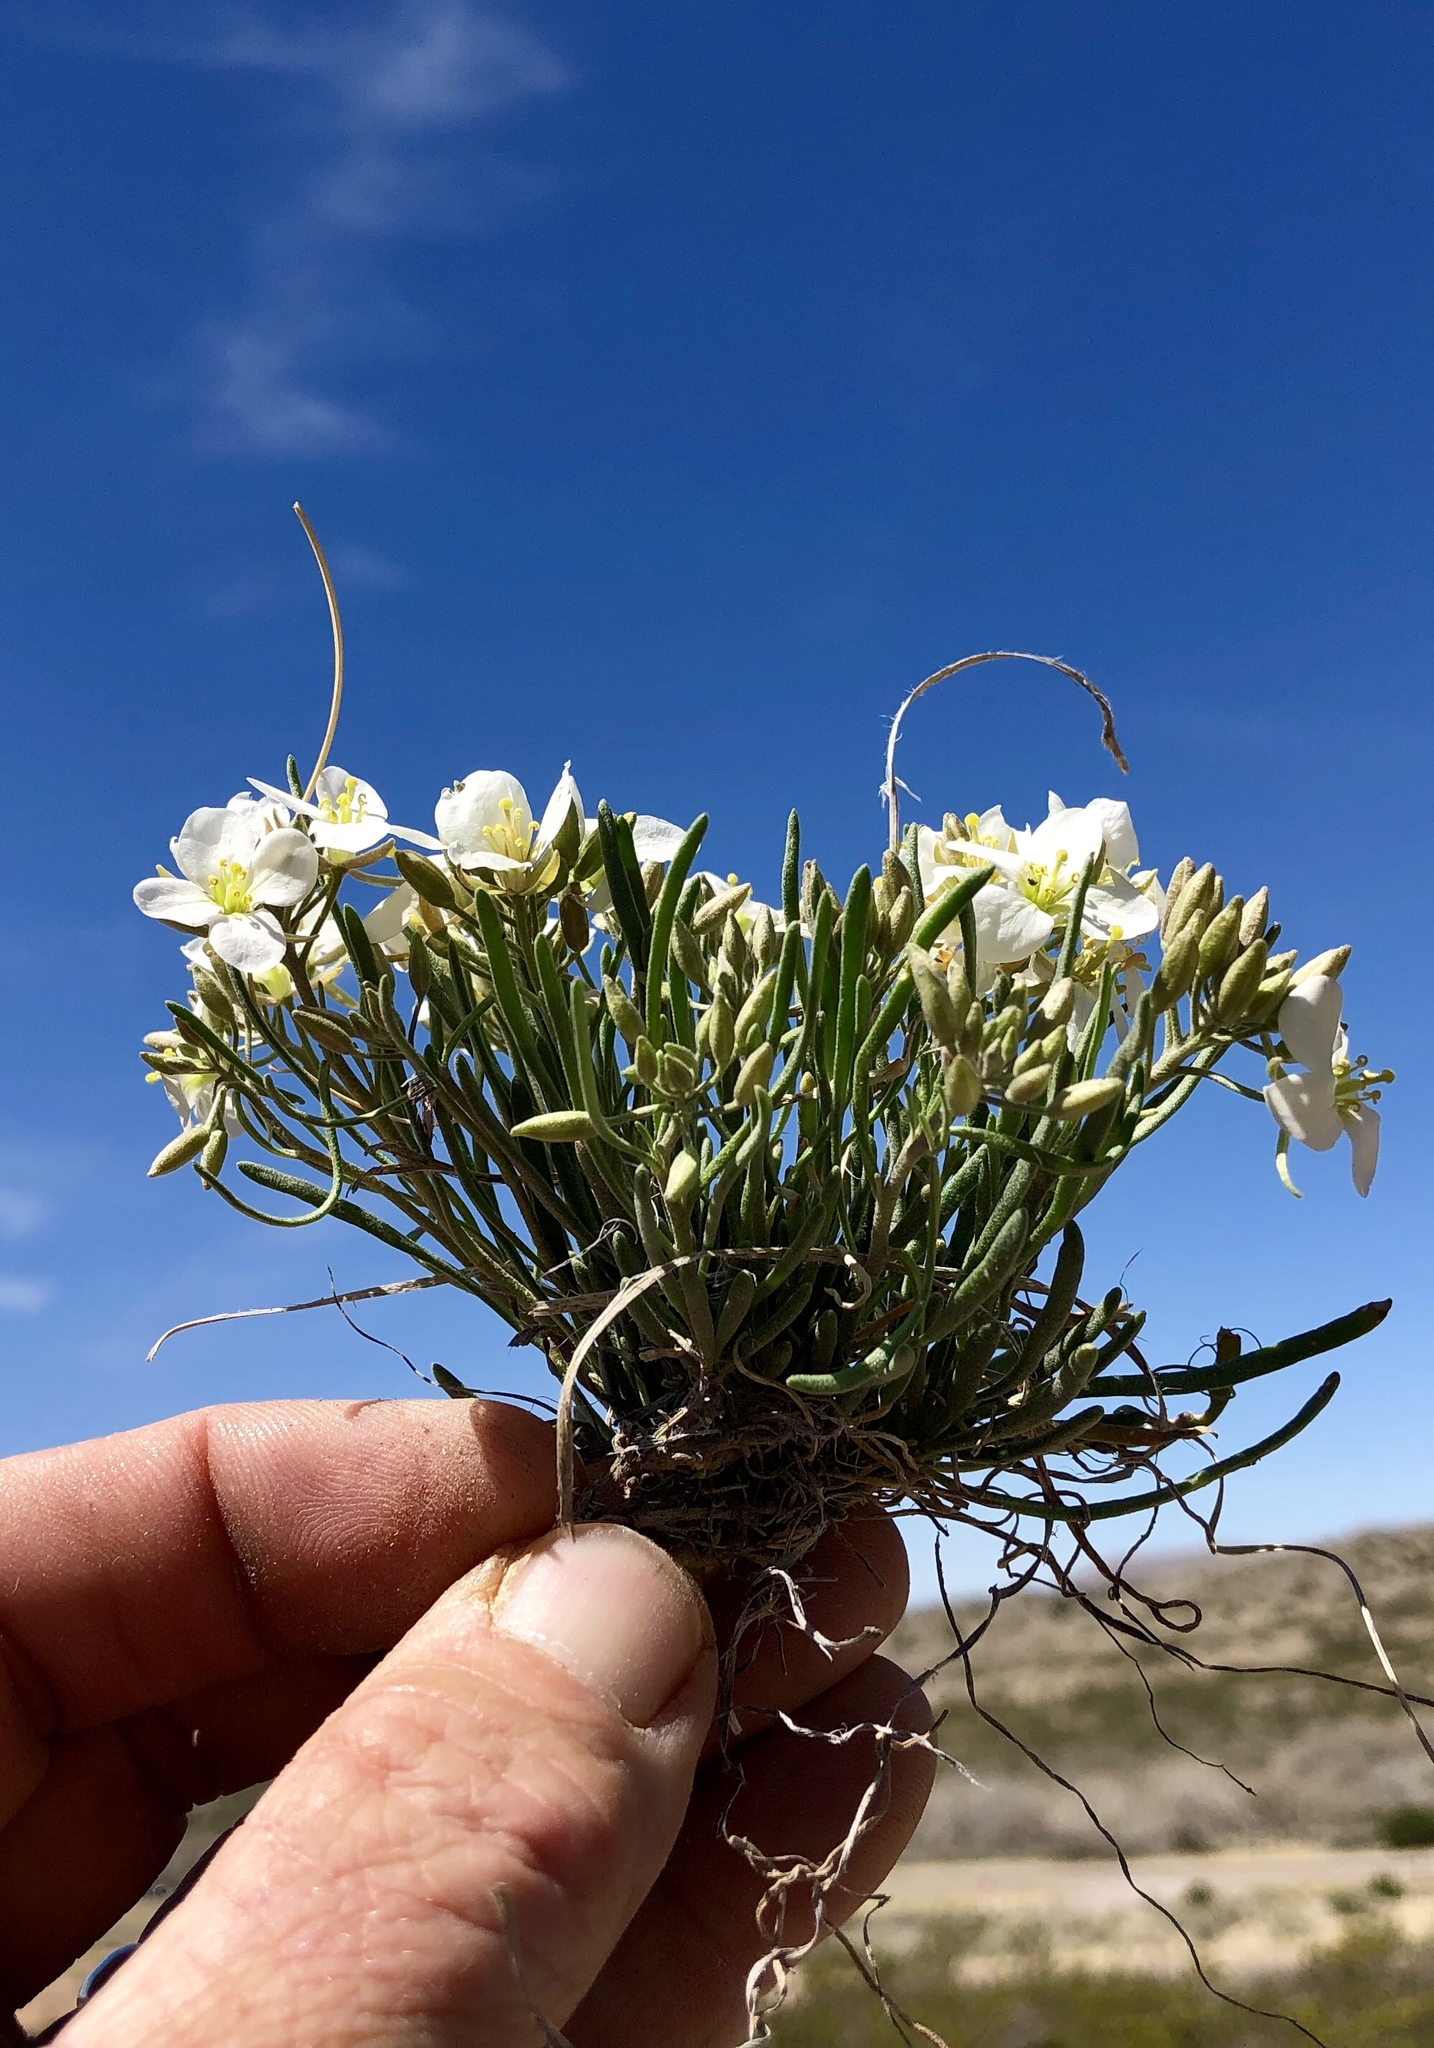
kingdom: Plantae
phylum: Tracheophyta
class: Magnoliopsida
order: Brassicales
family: Brassicaceae
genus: Nerisyrenia
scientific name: Nerisyrenia linearifolia
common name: White sands fan mustard
